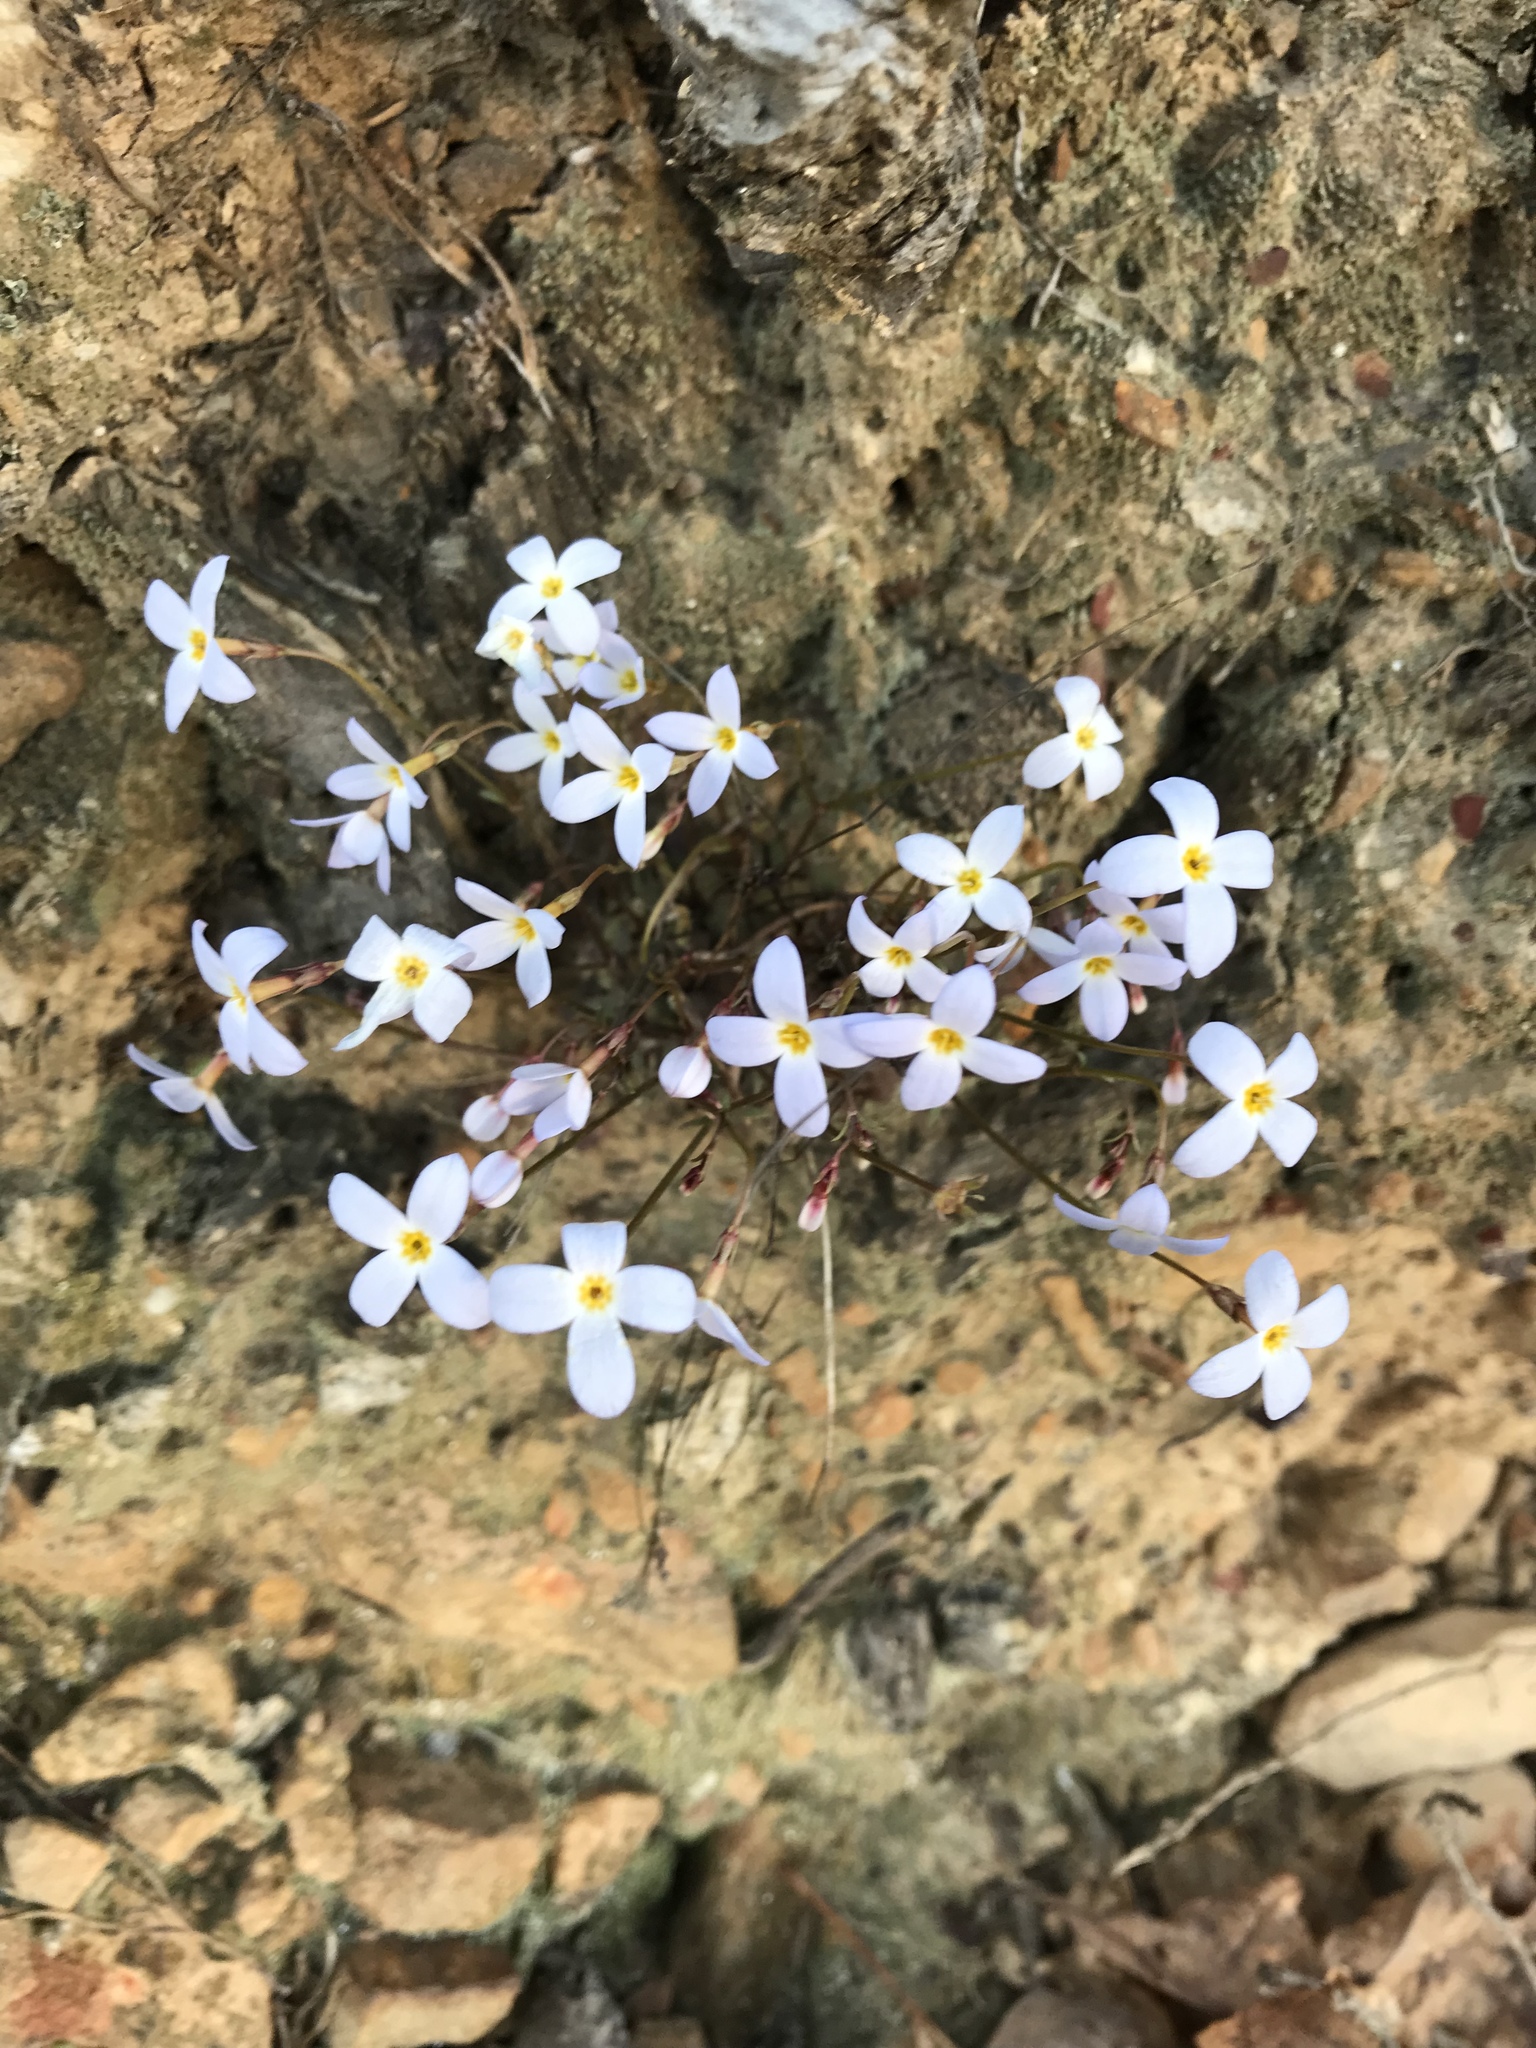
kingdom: Plantae
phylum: Tracheophyta
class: Magnoliopsida
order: Gentianales
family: Rubiaceae
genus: Houstonia
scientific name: Houstonia caerulea
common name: Bluets
